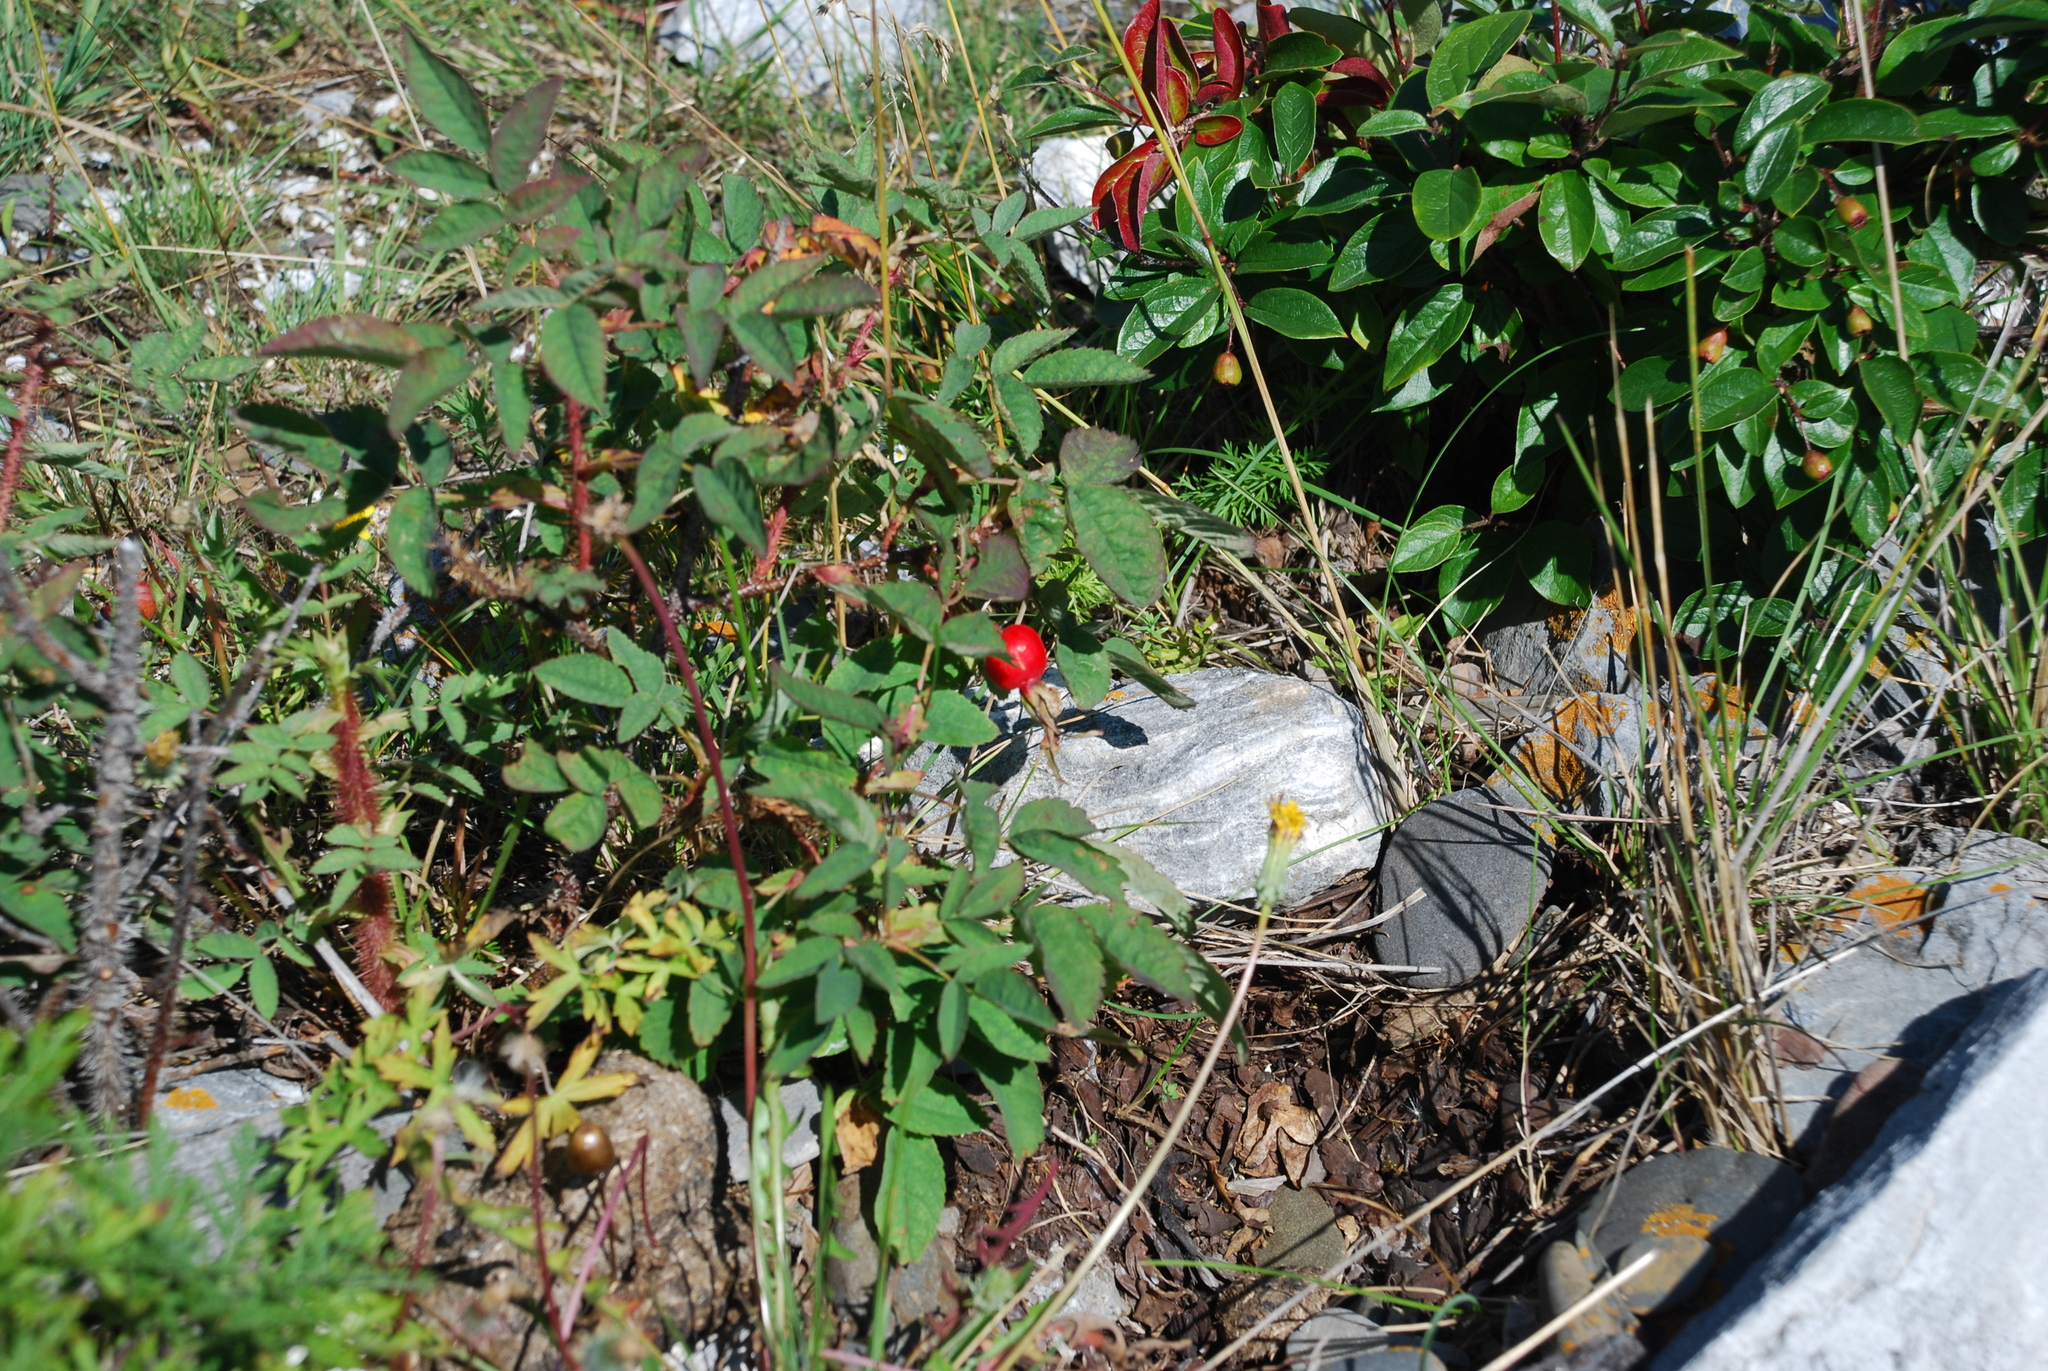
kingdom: Plantae
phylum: Tracheophyta
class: Magnoliopsida
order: Rosales
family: Rosaceae
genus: Rosa
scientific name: Rosa acicularis
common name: Prickly rose
